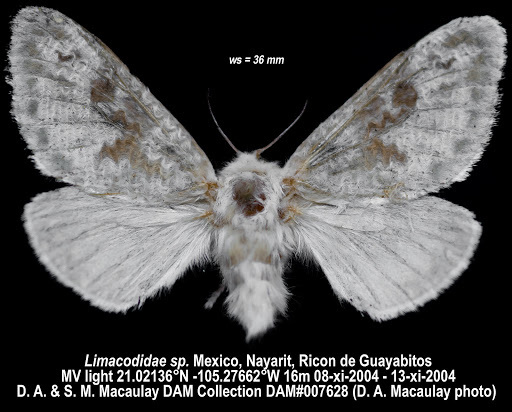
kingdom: Animalia
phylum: Arthropoda
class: Insecta
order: Lepidoptera
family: Megalopygidae
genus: Megalopyge
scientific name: Megalopyge ravida
